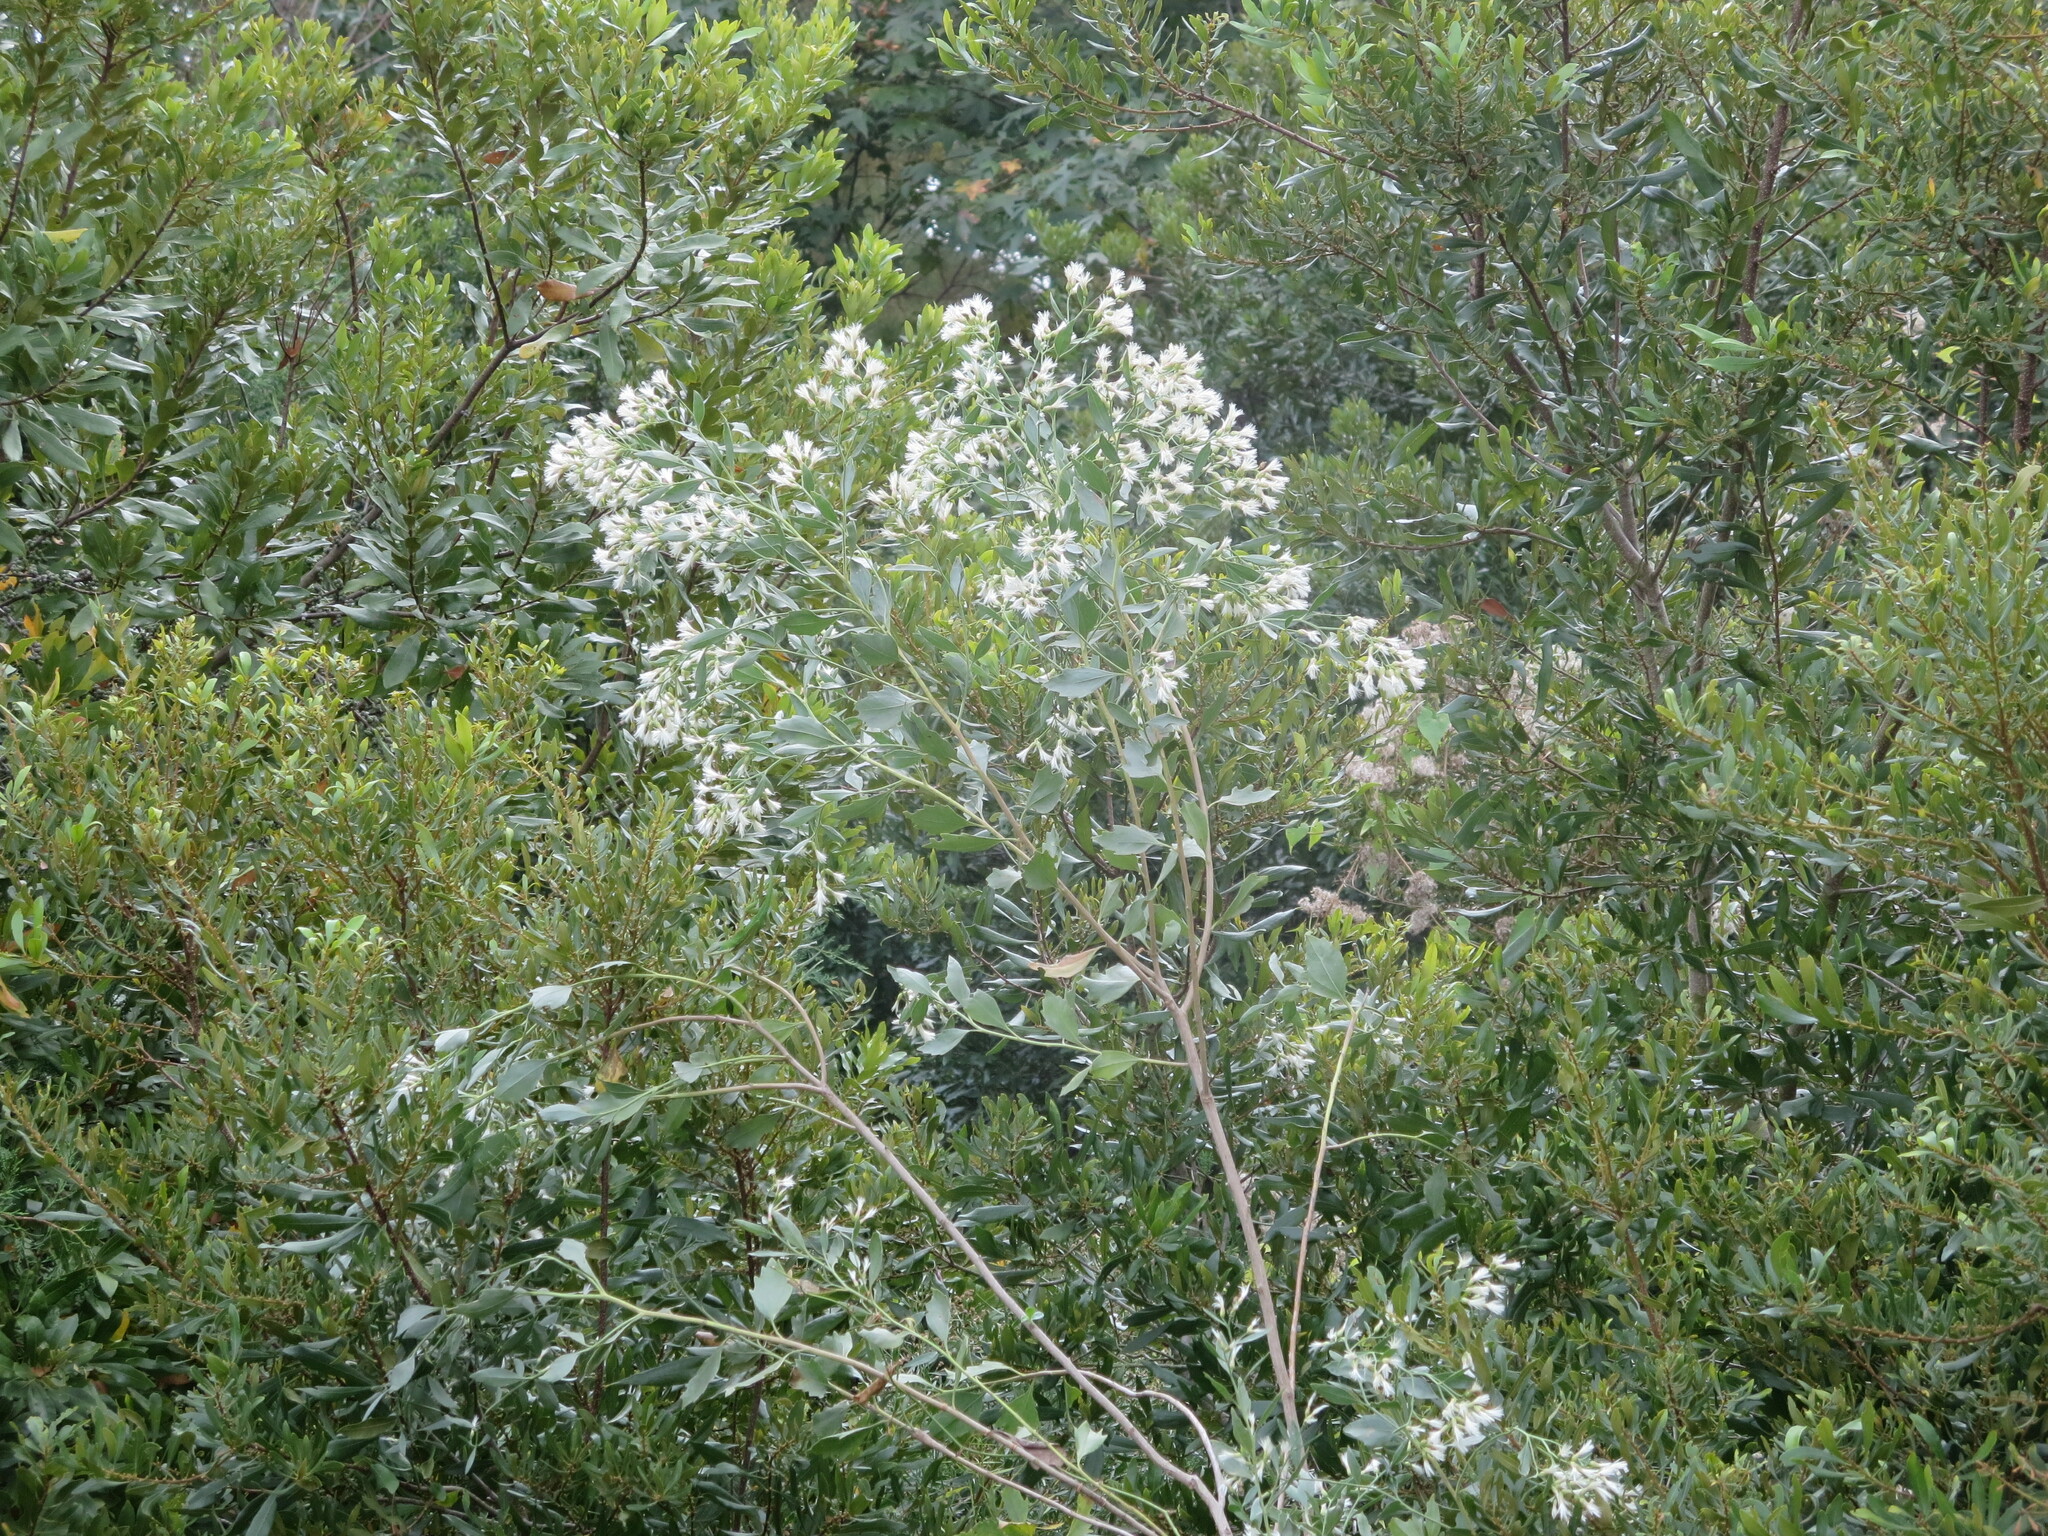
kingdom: Plantae
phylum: Tracheophyta
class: Magnoliopsida
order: Asterales
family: Asteraceae
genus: Baccharis
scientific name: Baccharis halimifolia
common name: Eastern baccharis
